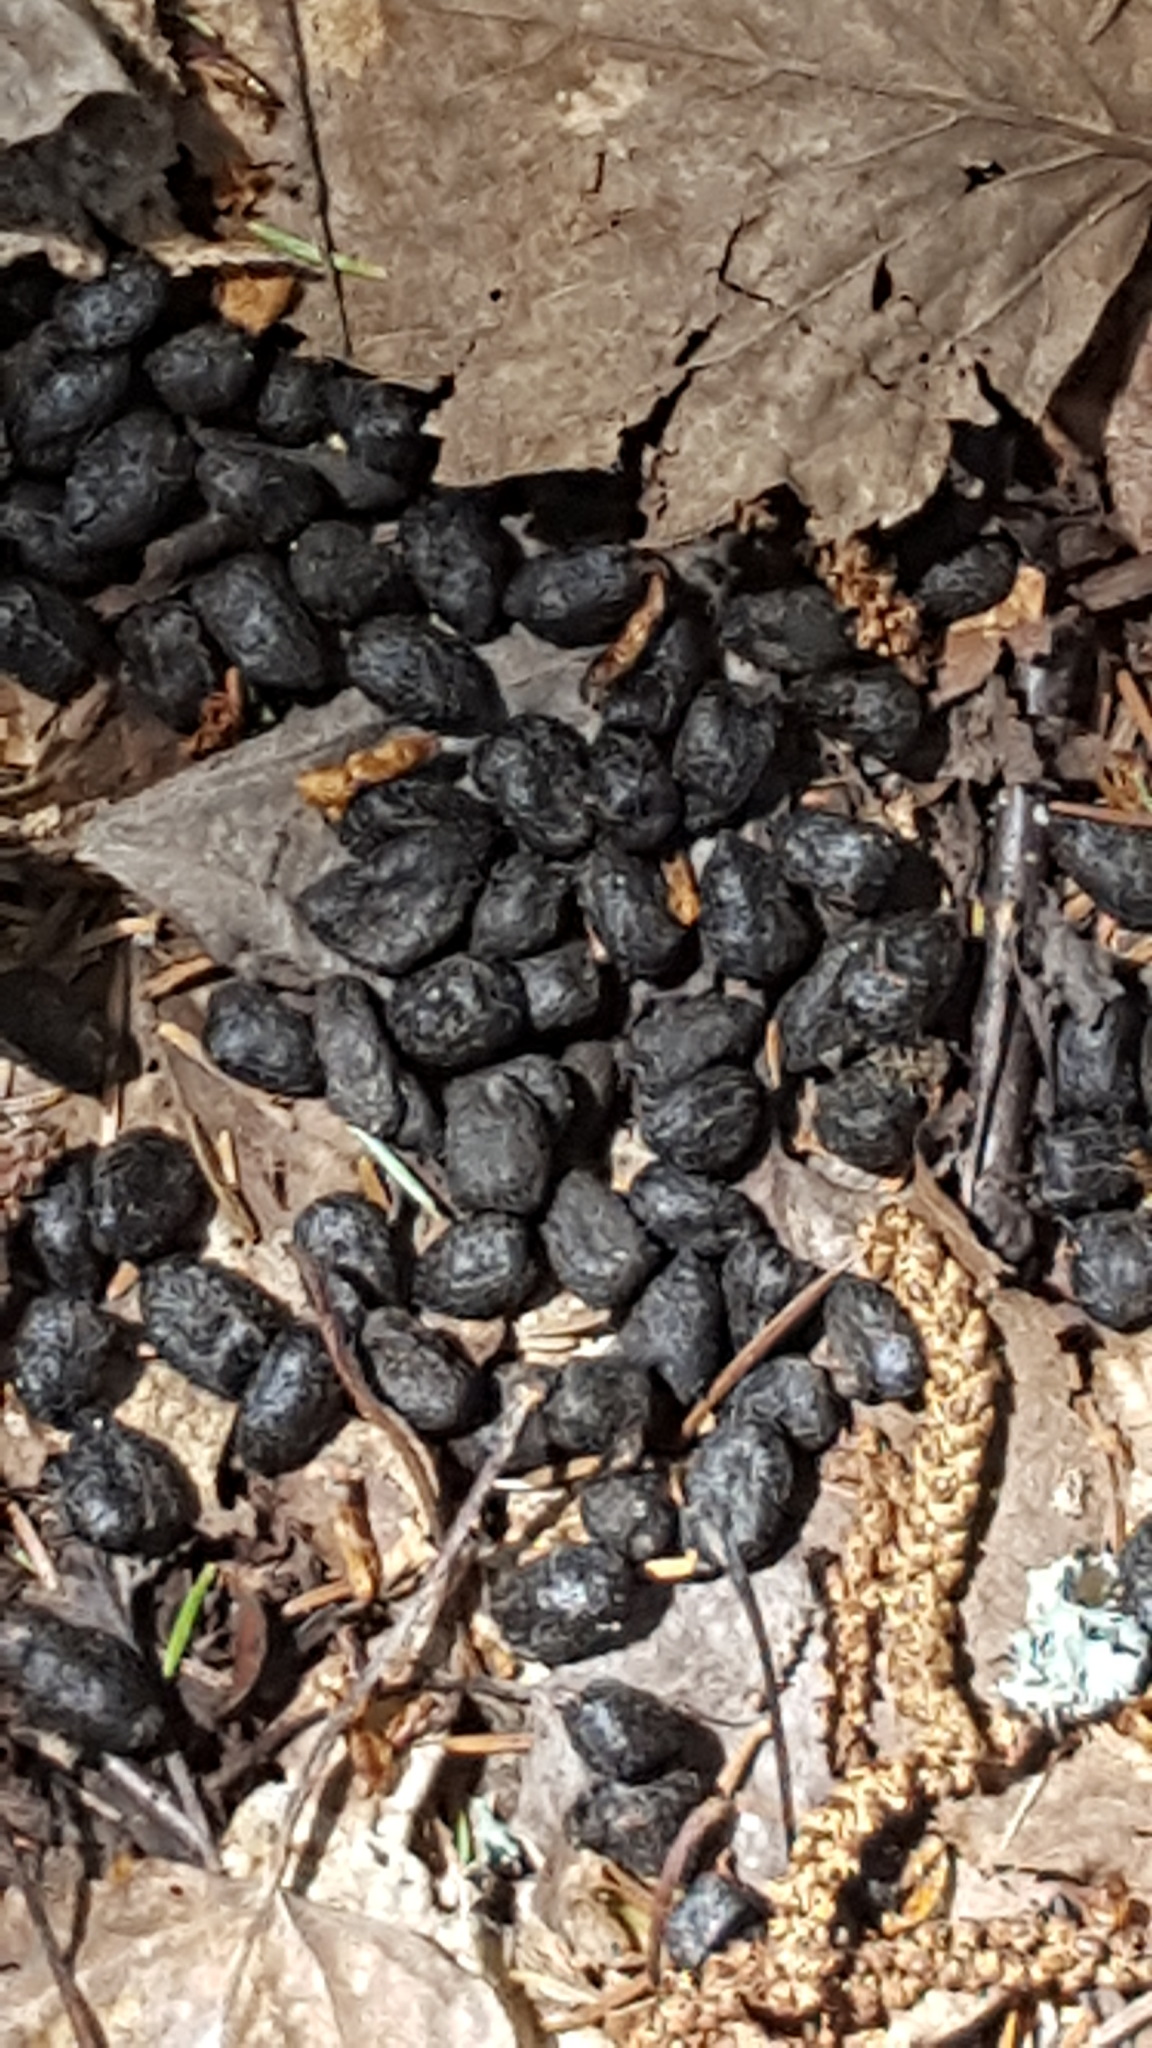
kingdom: Animalia
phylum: Chordata
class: Mammalia
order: Artiodactyla
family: Cervidae
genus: Odocoileus
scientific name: Odocoileus virginianus
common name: White-tailed deer
